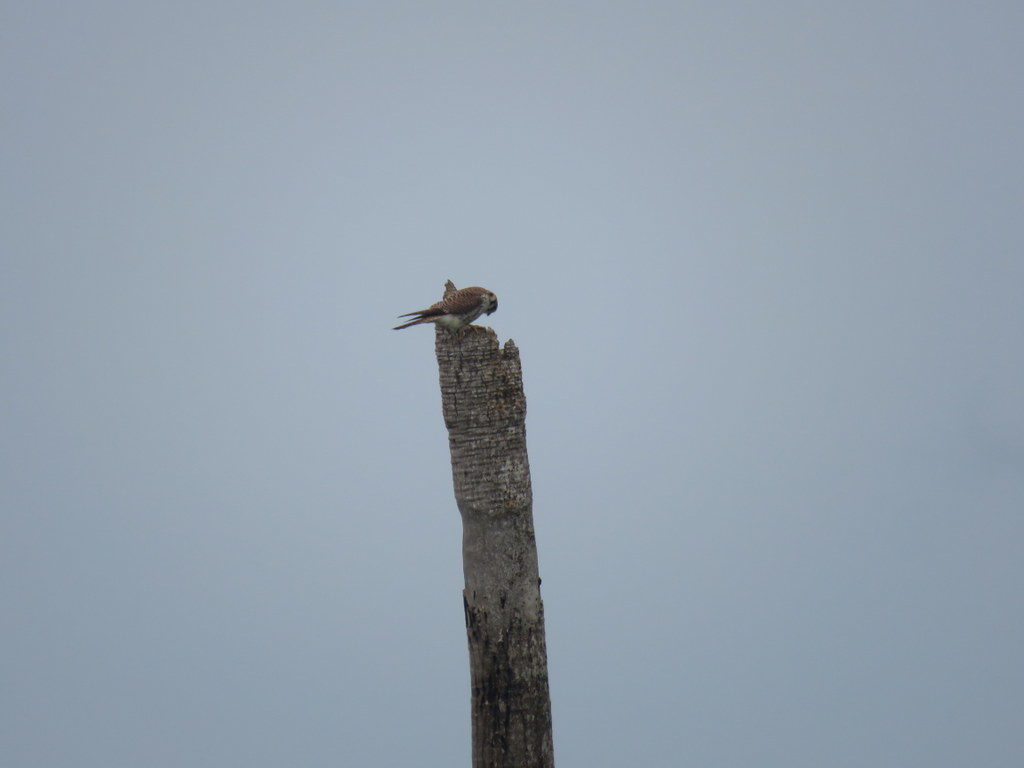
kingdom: Animalia
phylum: Chordata
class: Aves
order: Falconiformes
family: Falconidae
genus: Falco
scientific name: Falco sparverius
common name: American kestrel
